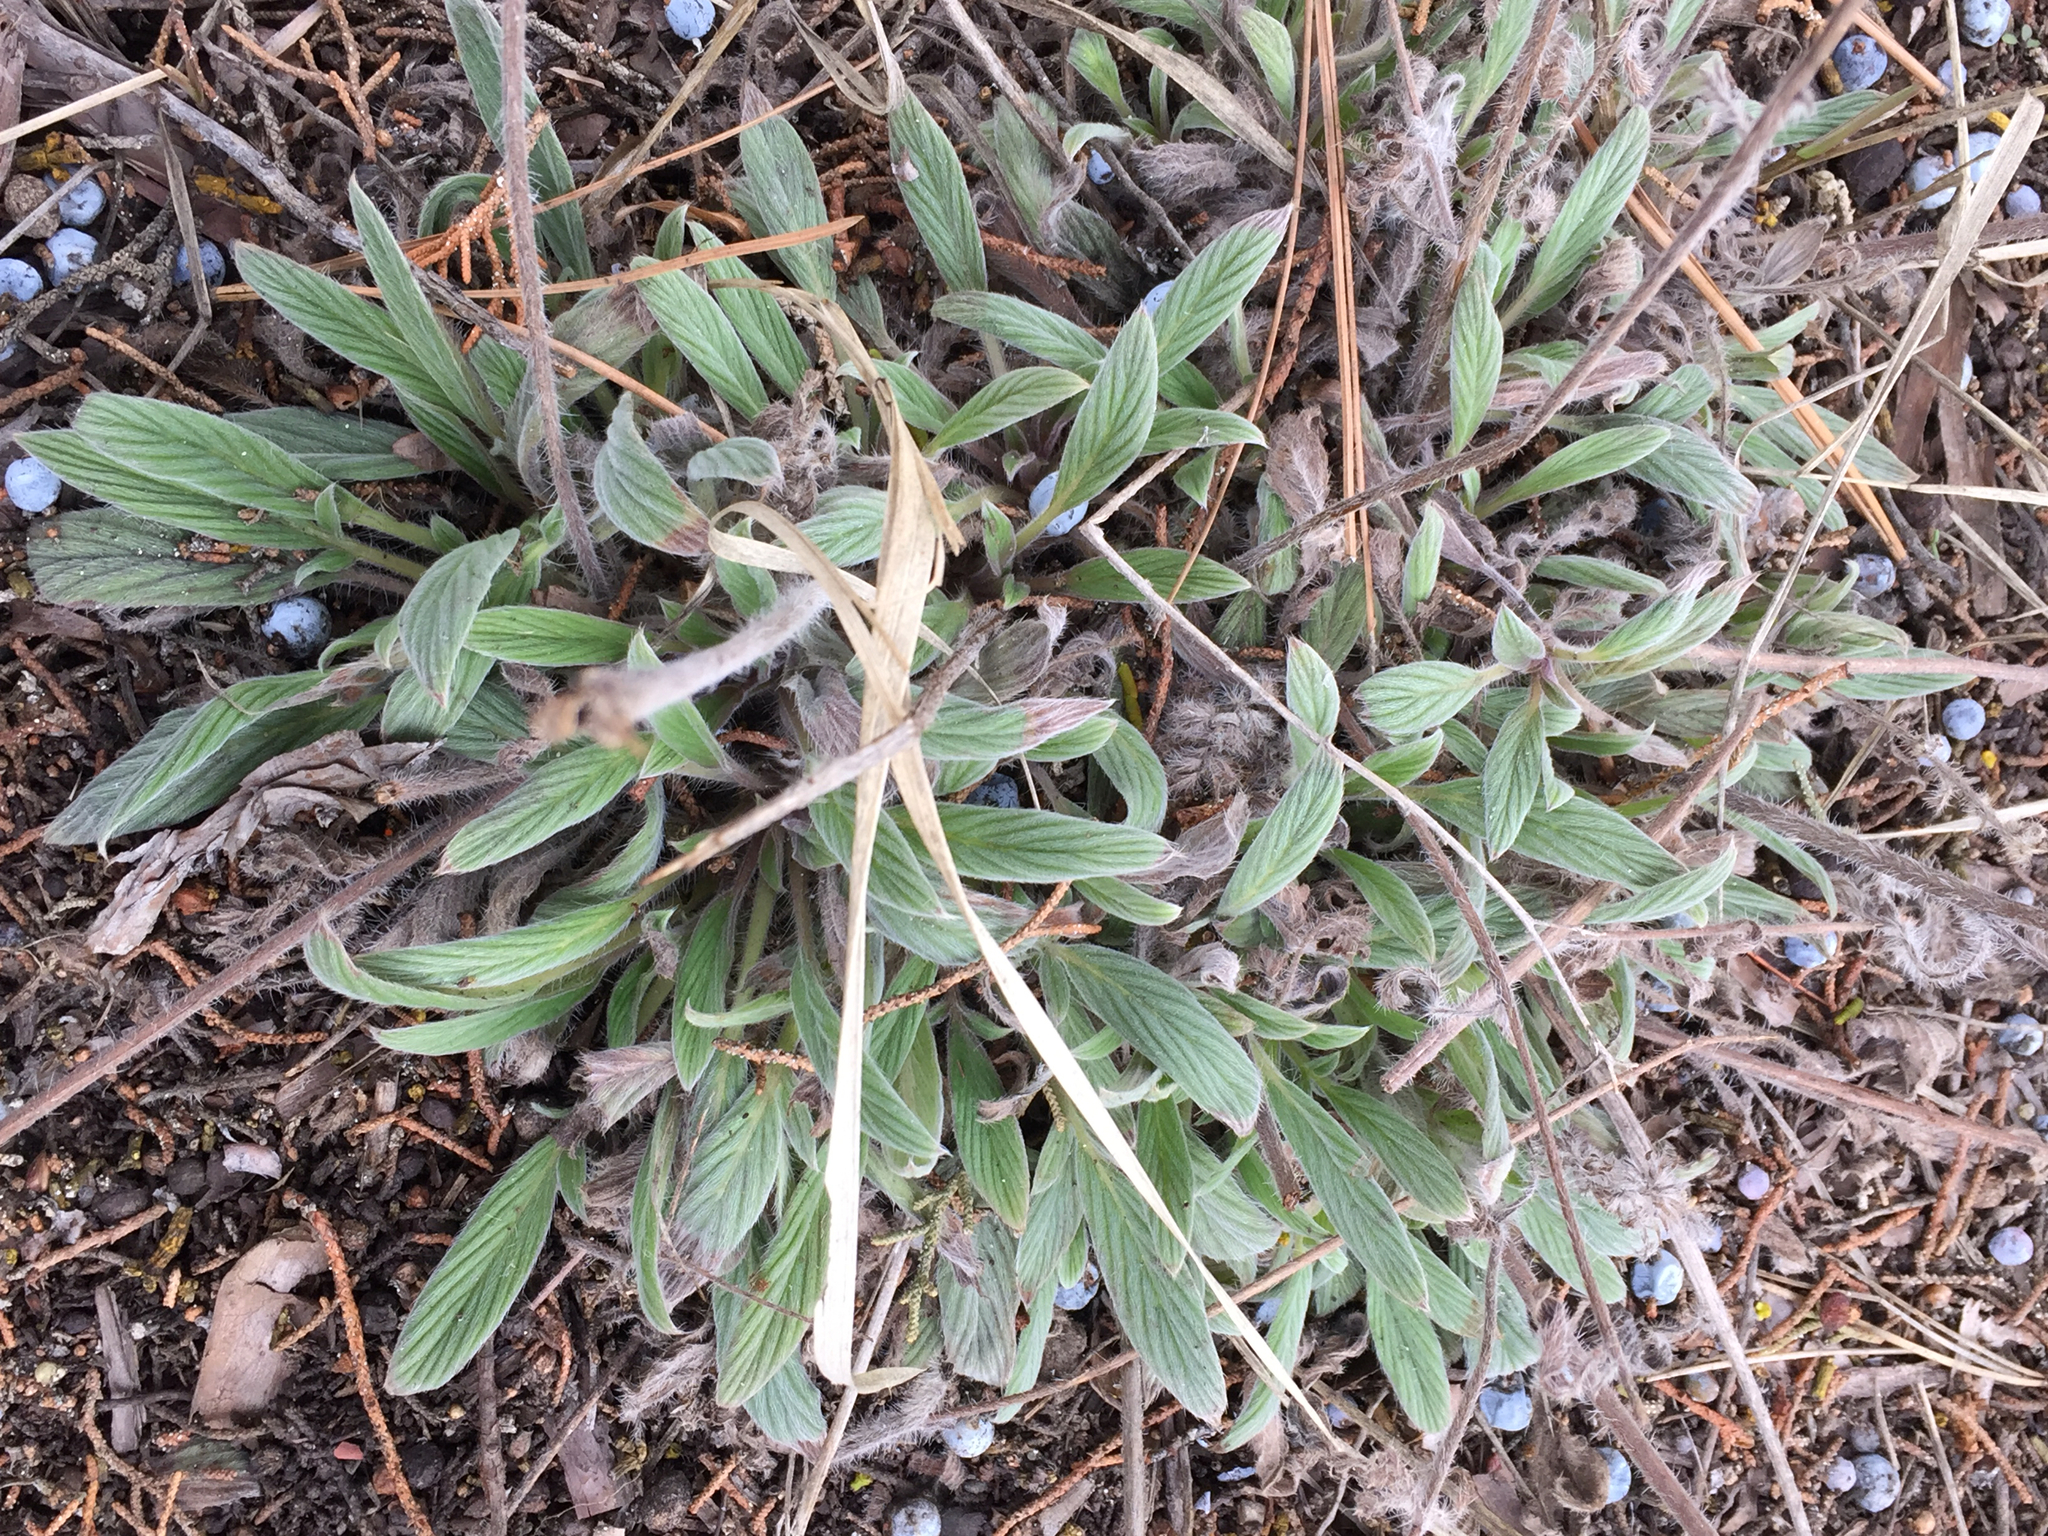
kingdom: Plantae
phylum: Tracheophyta
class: Magnoliopsida
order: Boraginales
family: Hydrophyllaceae
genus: Phacelia
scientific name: Phacelia hastata
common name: Silver-leaved phacelia
